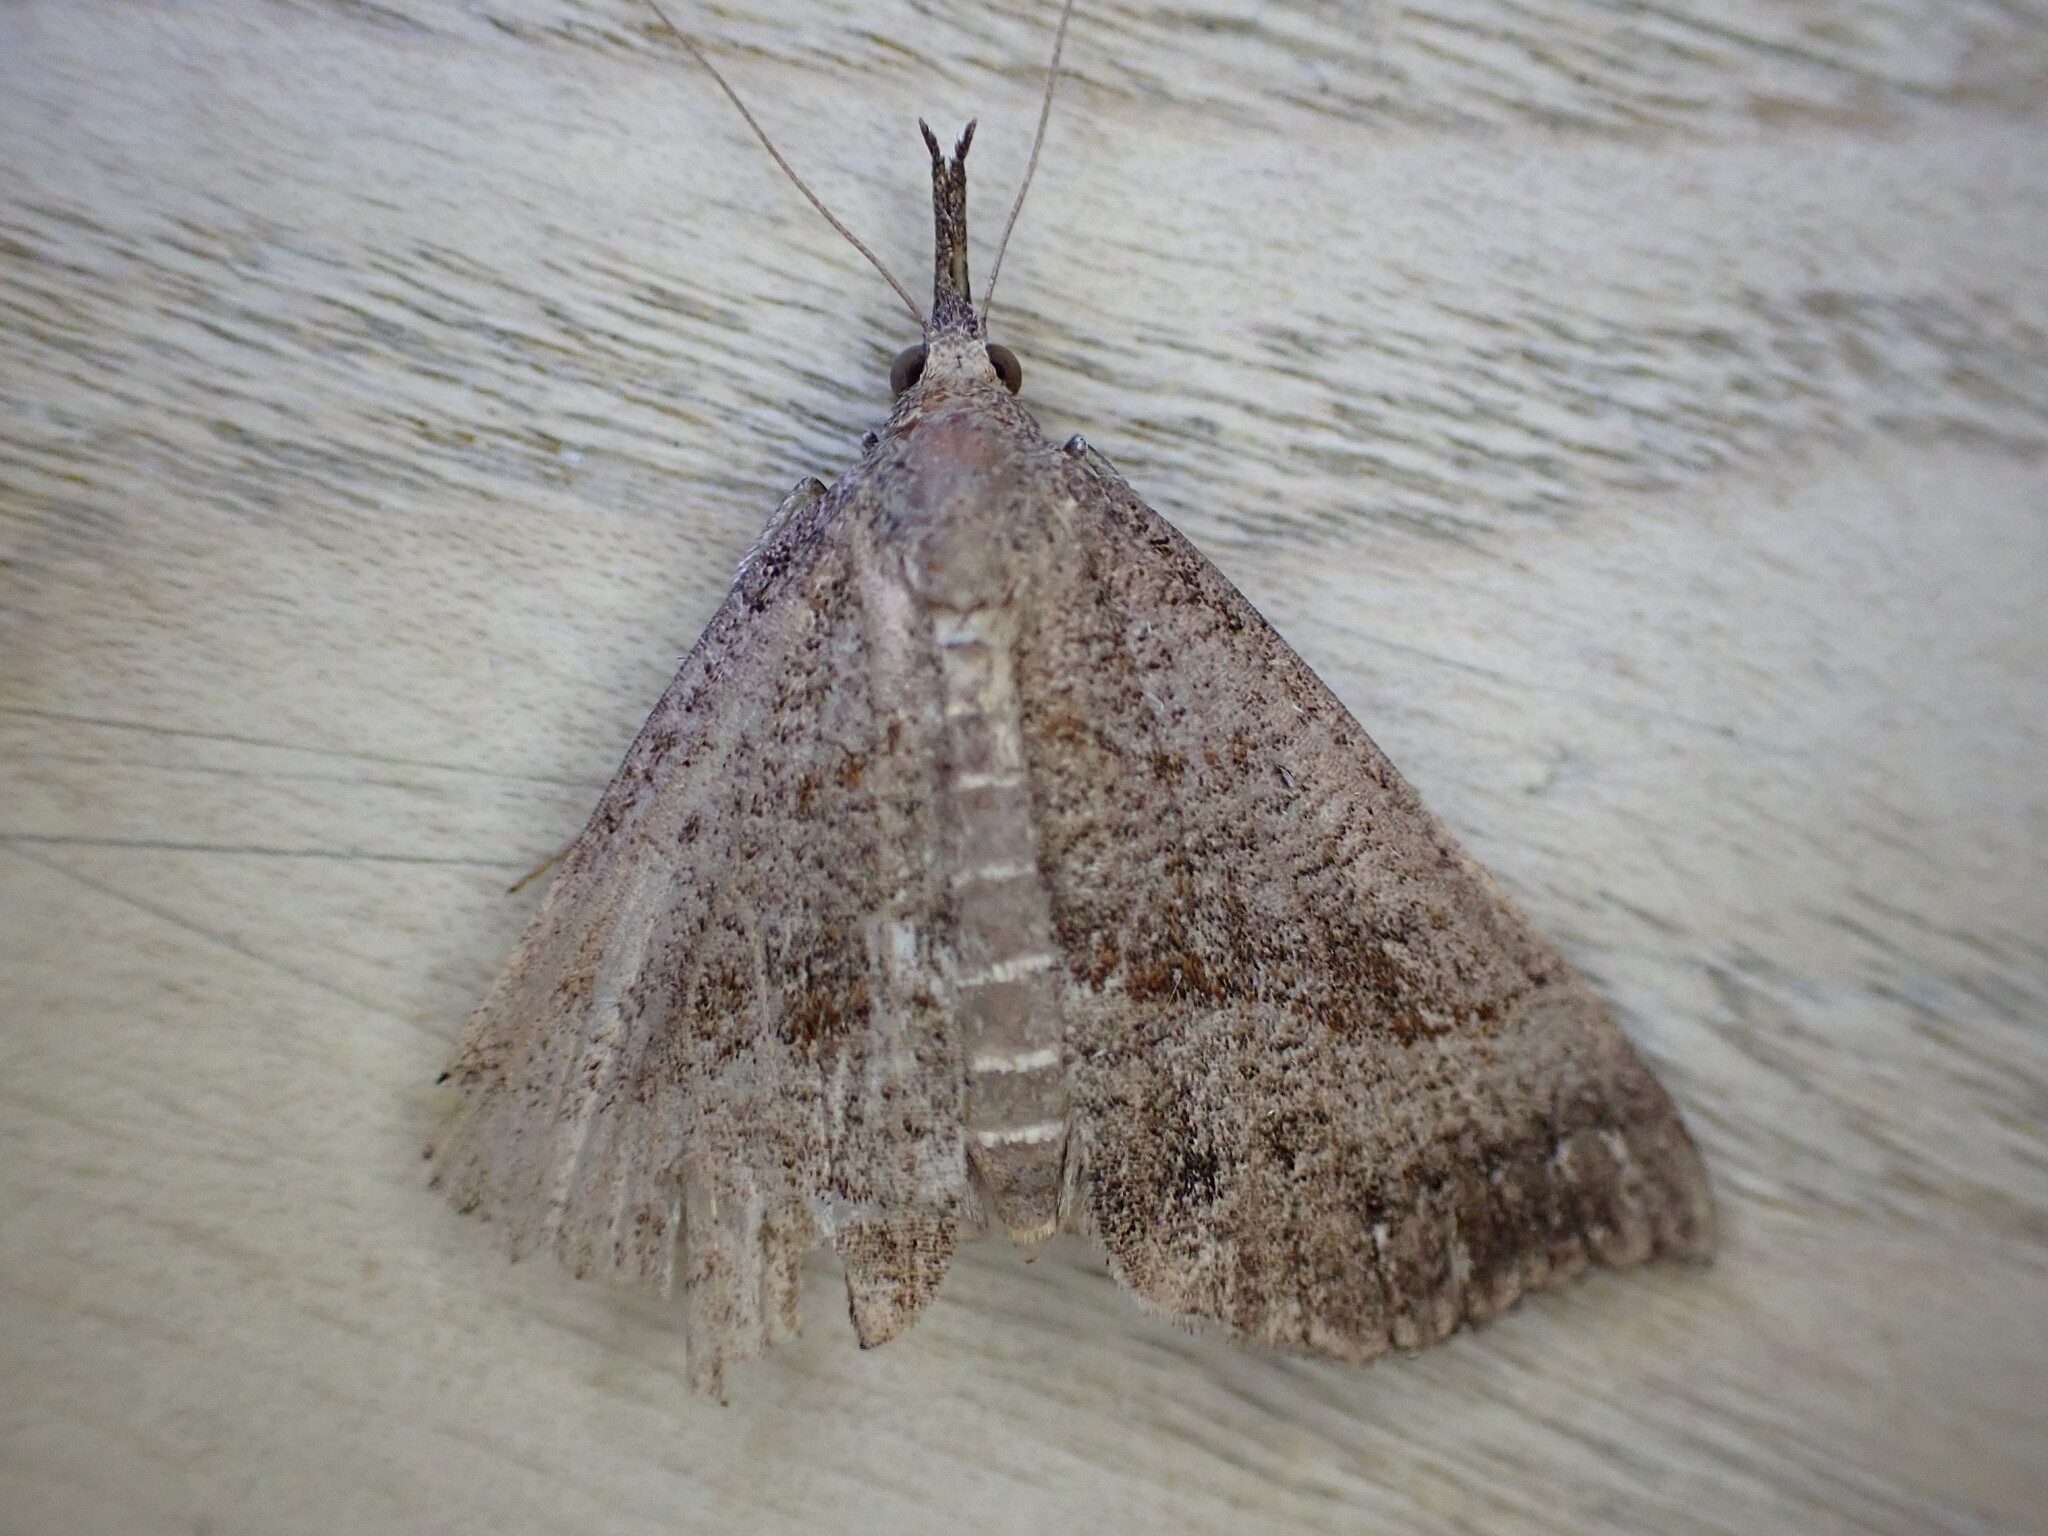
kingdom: Animalia
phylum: Arthropoda
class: Insecta
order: Lepidoptera
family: Erebidae
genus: Hypena
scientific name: Hypena proboscidalis
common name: Snout
